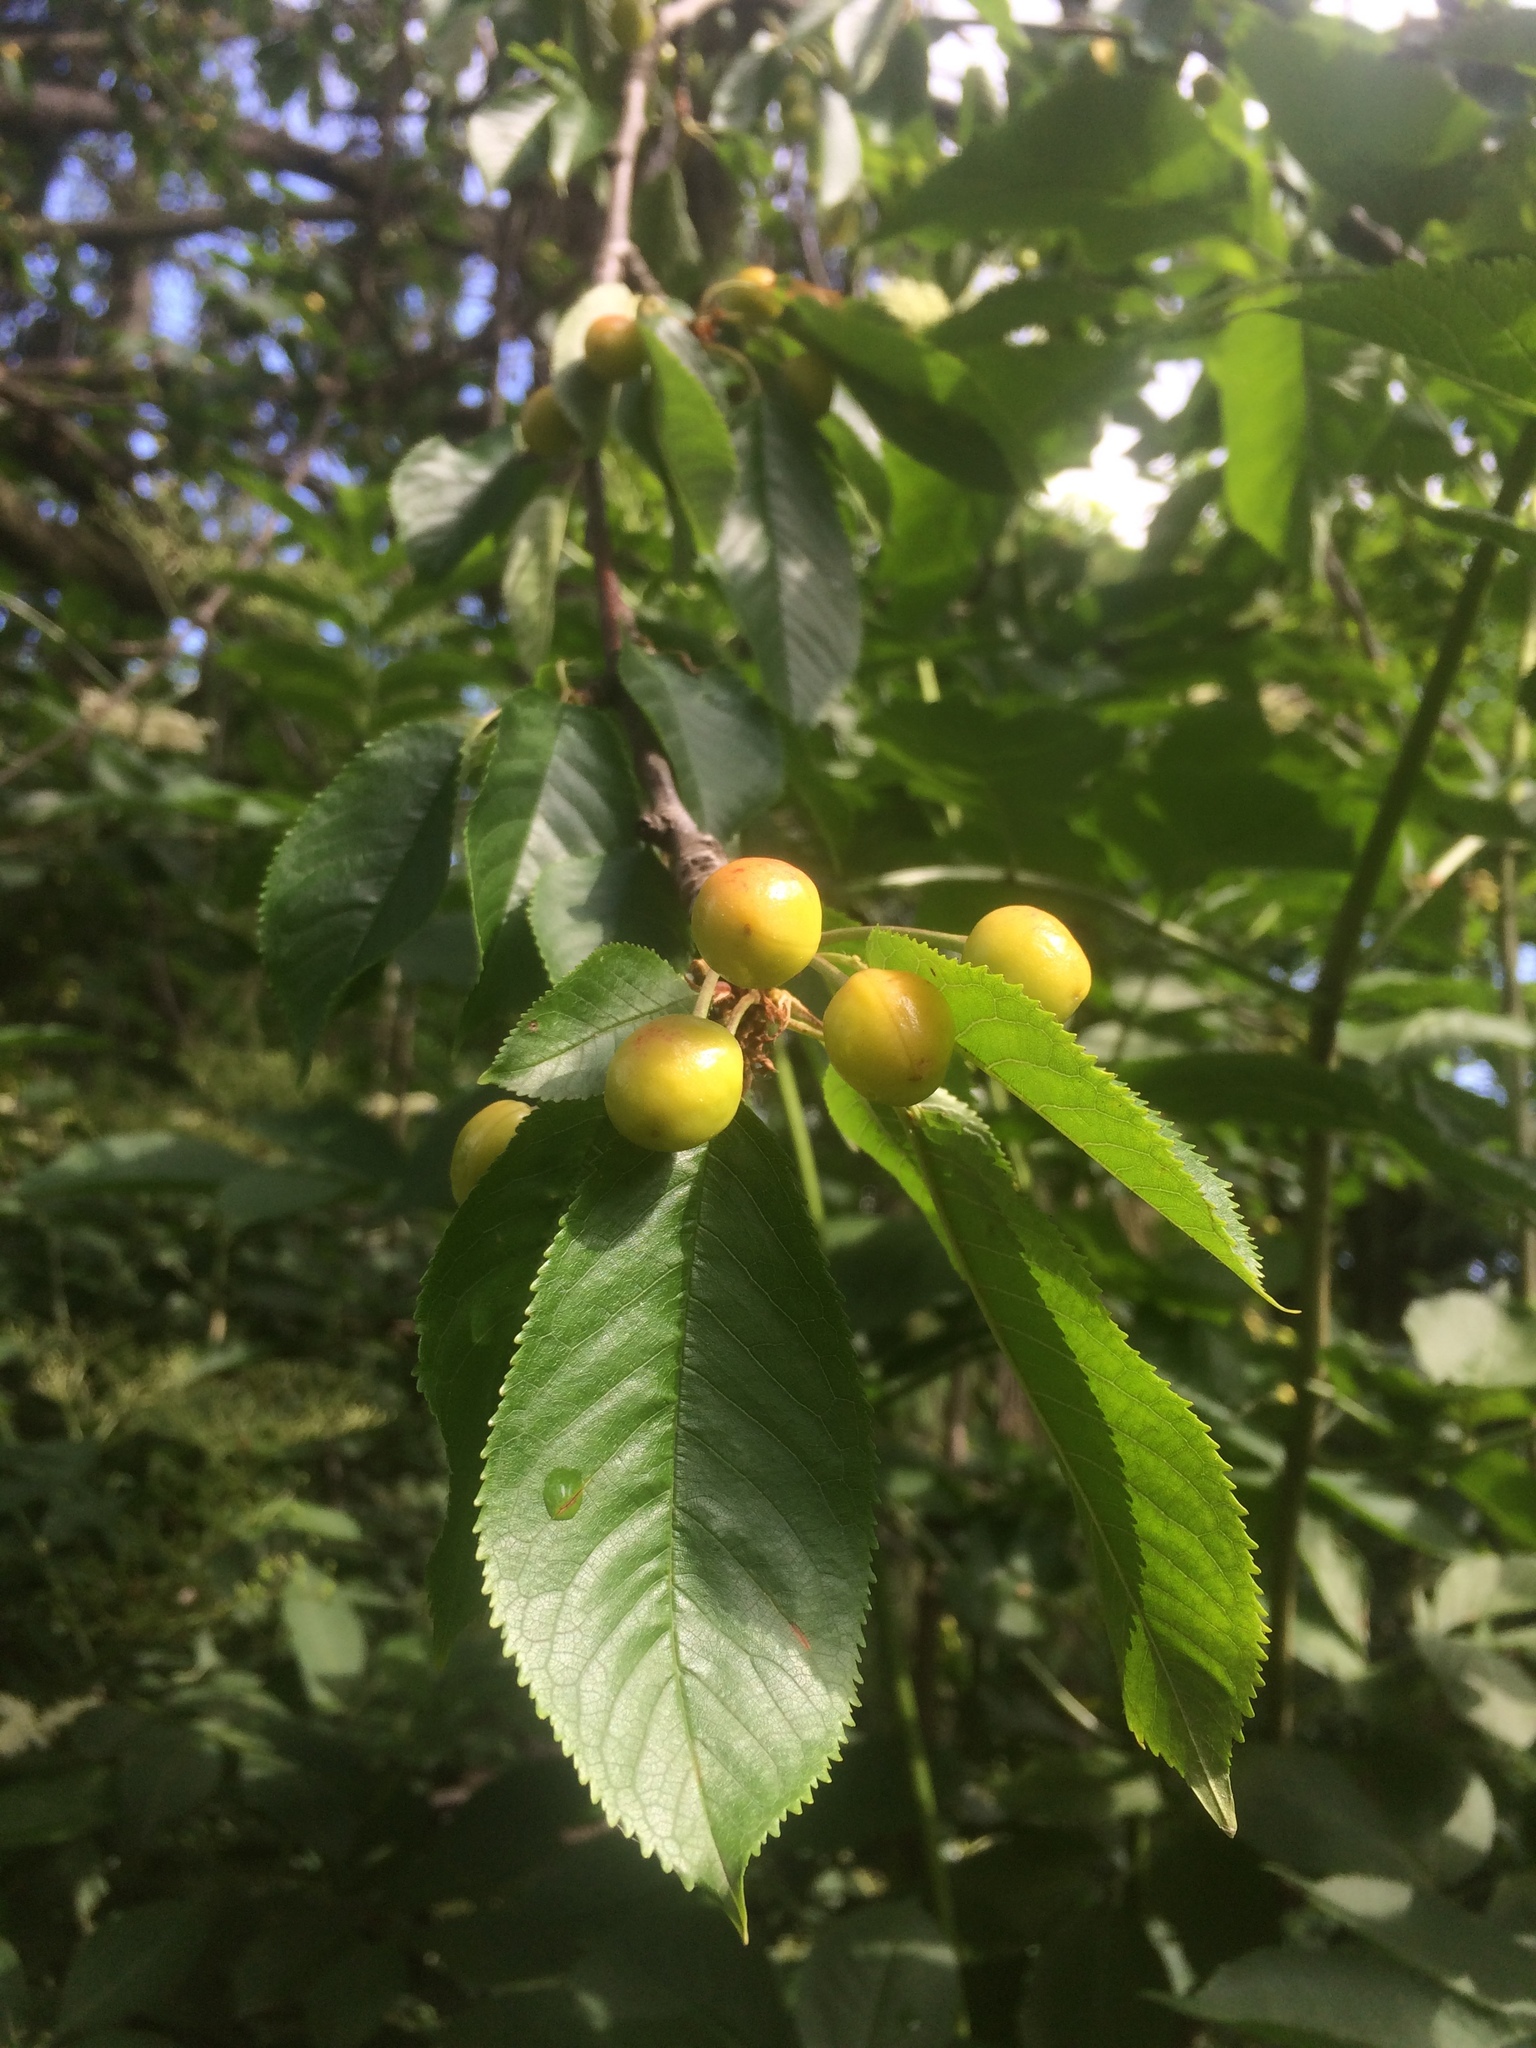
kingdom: Plantae
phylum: Tracheophyta
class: Magnoliopsida
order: Rosales
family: Rosaceae
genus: Prunus
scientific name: Prunus avium
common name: Sweet cherry
